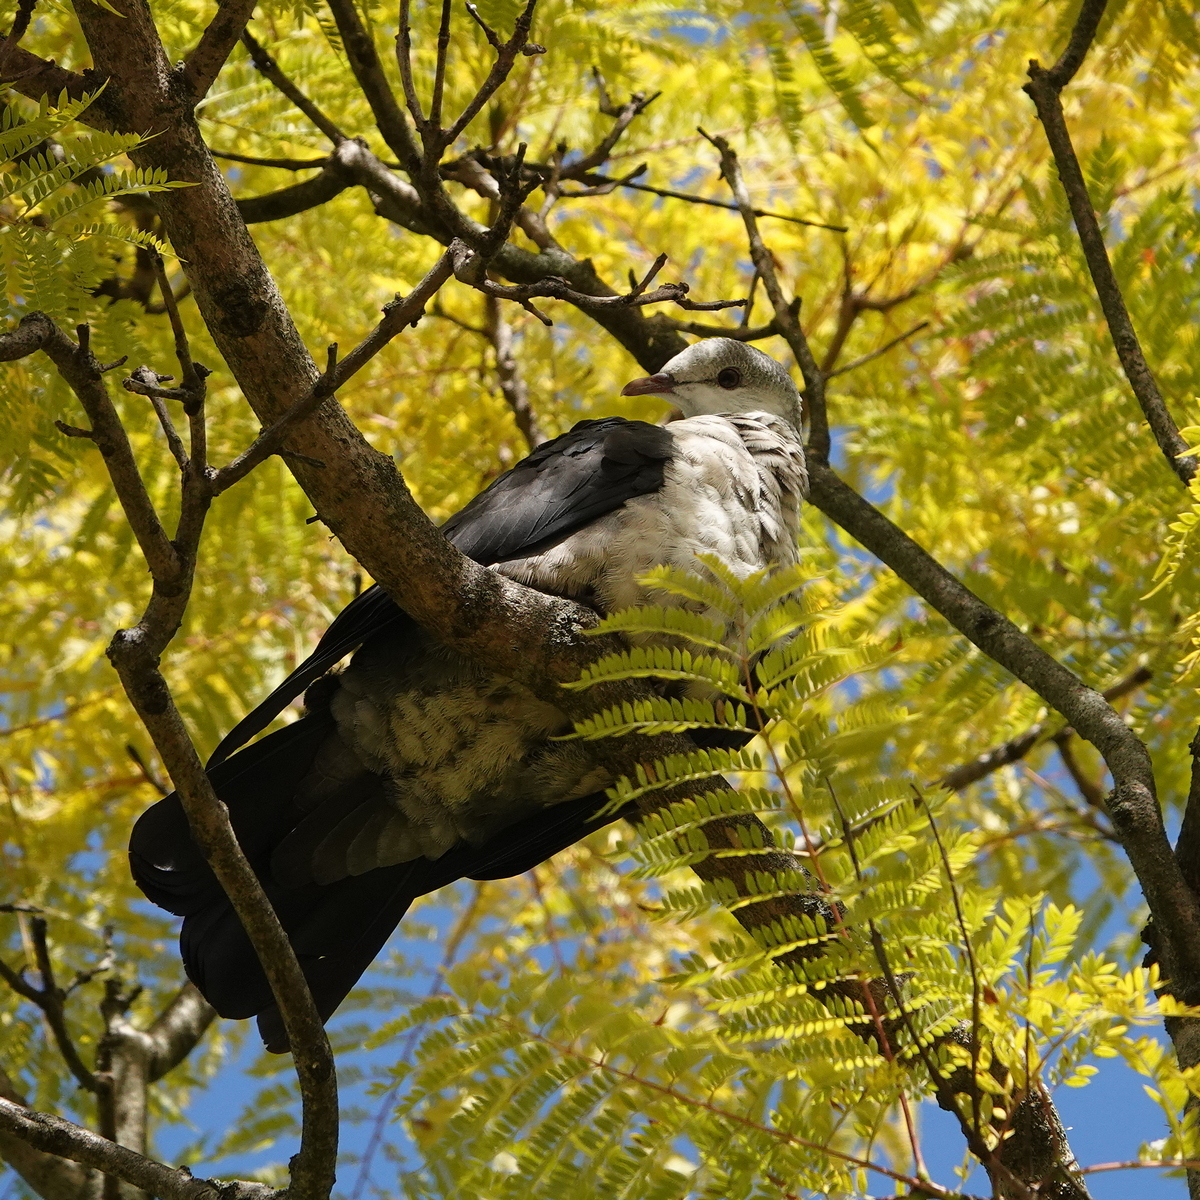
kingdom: Animalia
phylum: Chordata
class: Aves
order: Columbiformes
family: Columbidae
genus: Columba
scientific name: Columba leucomela
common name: White-headed pigeon
